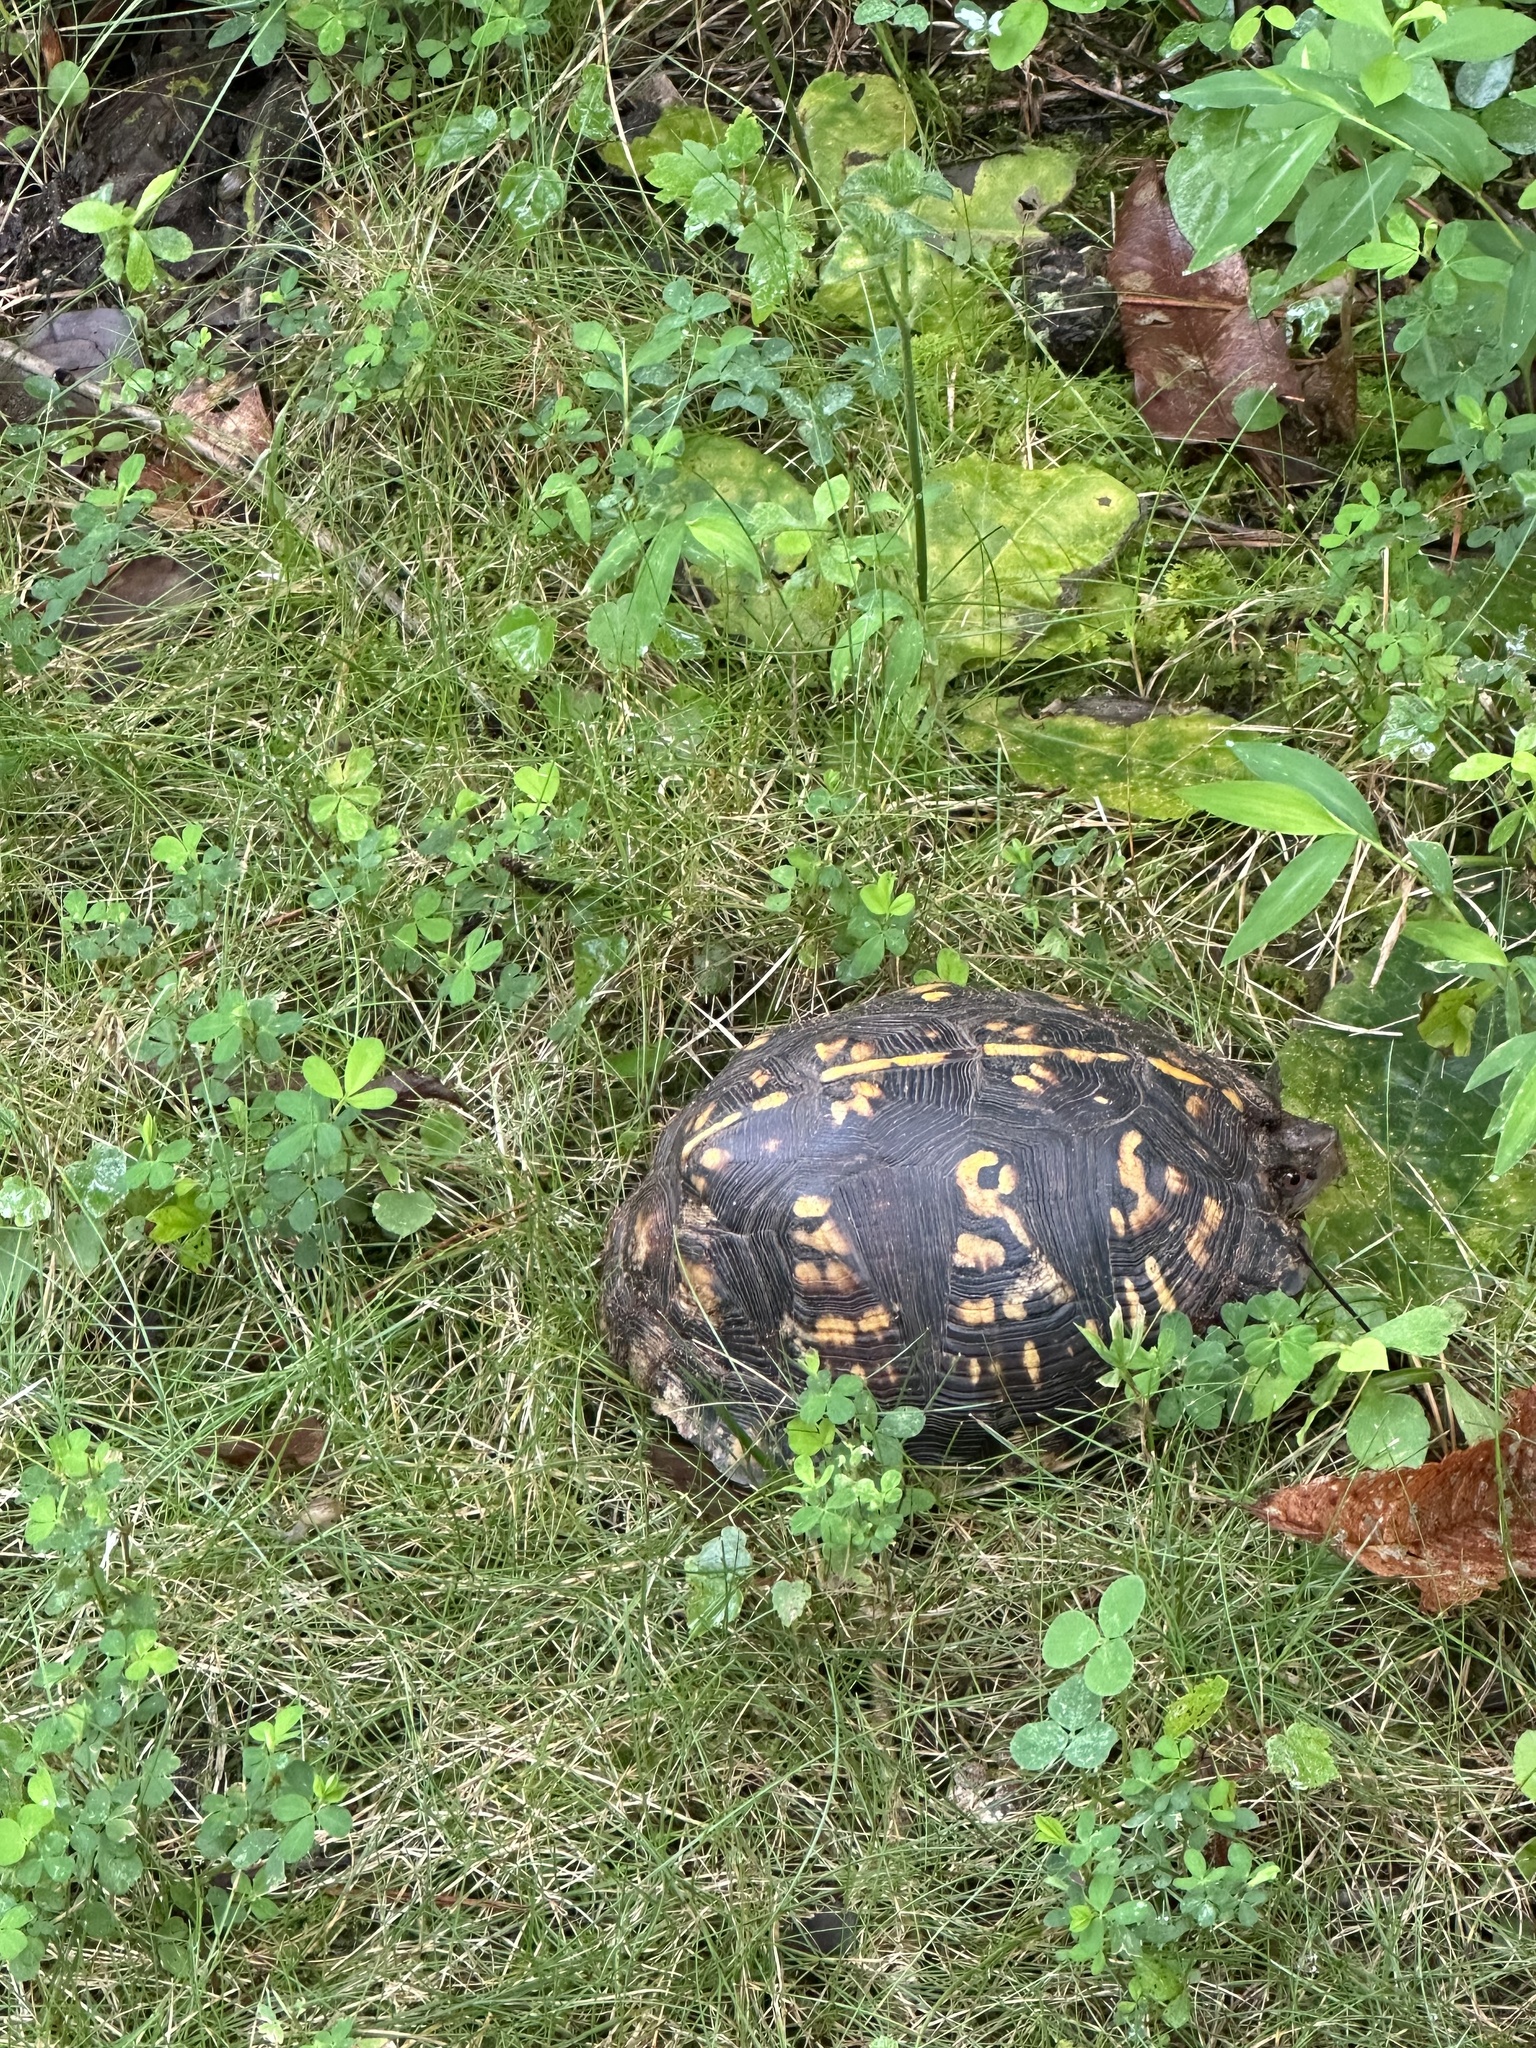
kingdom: Animalia
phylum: Chordata
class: Testudines
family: Emydidae
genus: Terrapene
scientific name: Terrapene carolina
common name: Common box turtle
